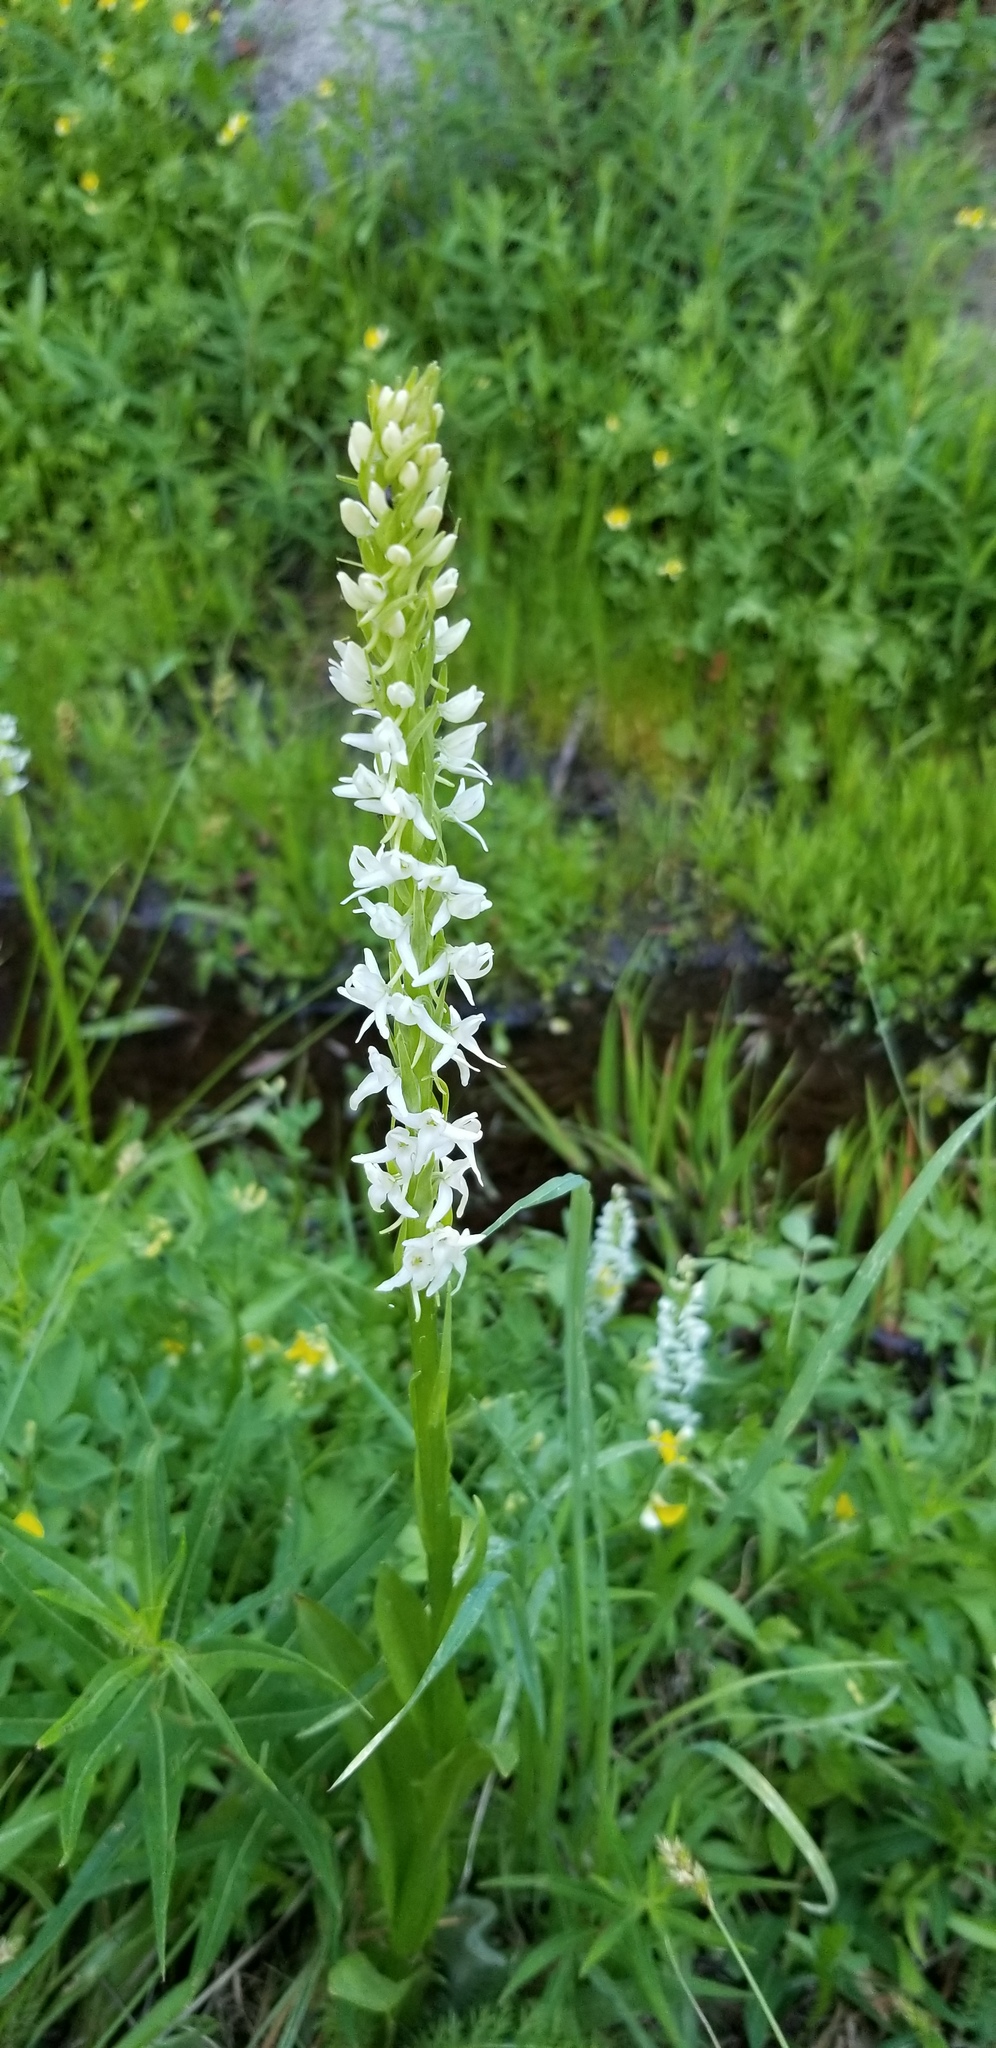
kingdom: Plantae
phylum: Tracheophyta
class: Liliopsida
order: Asparagales
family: Orchidaceae
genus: Platanthera
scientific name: Platanthera dilatata
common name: Bog candles
